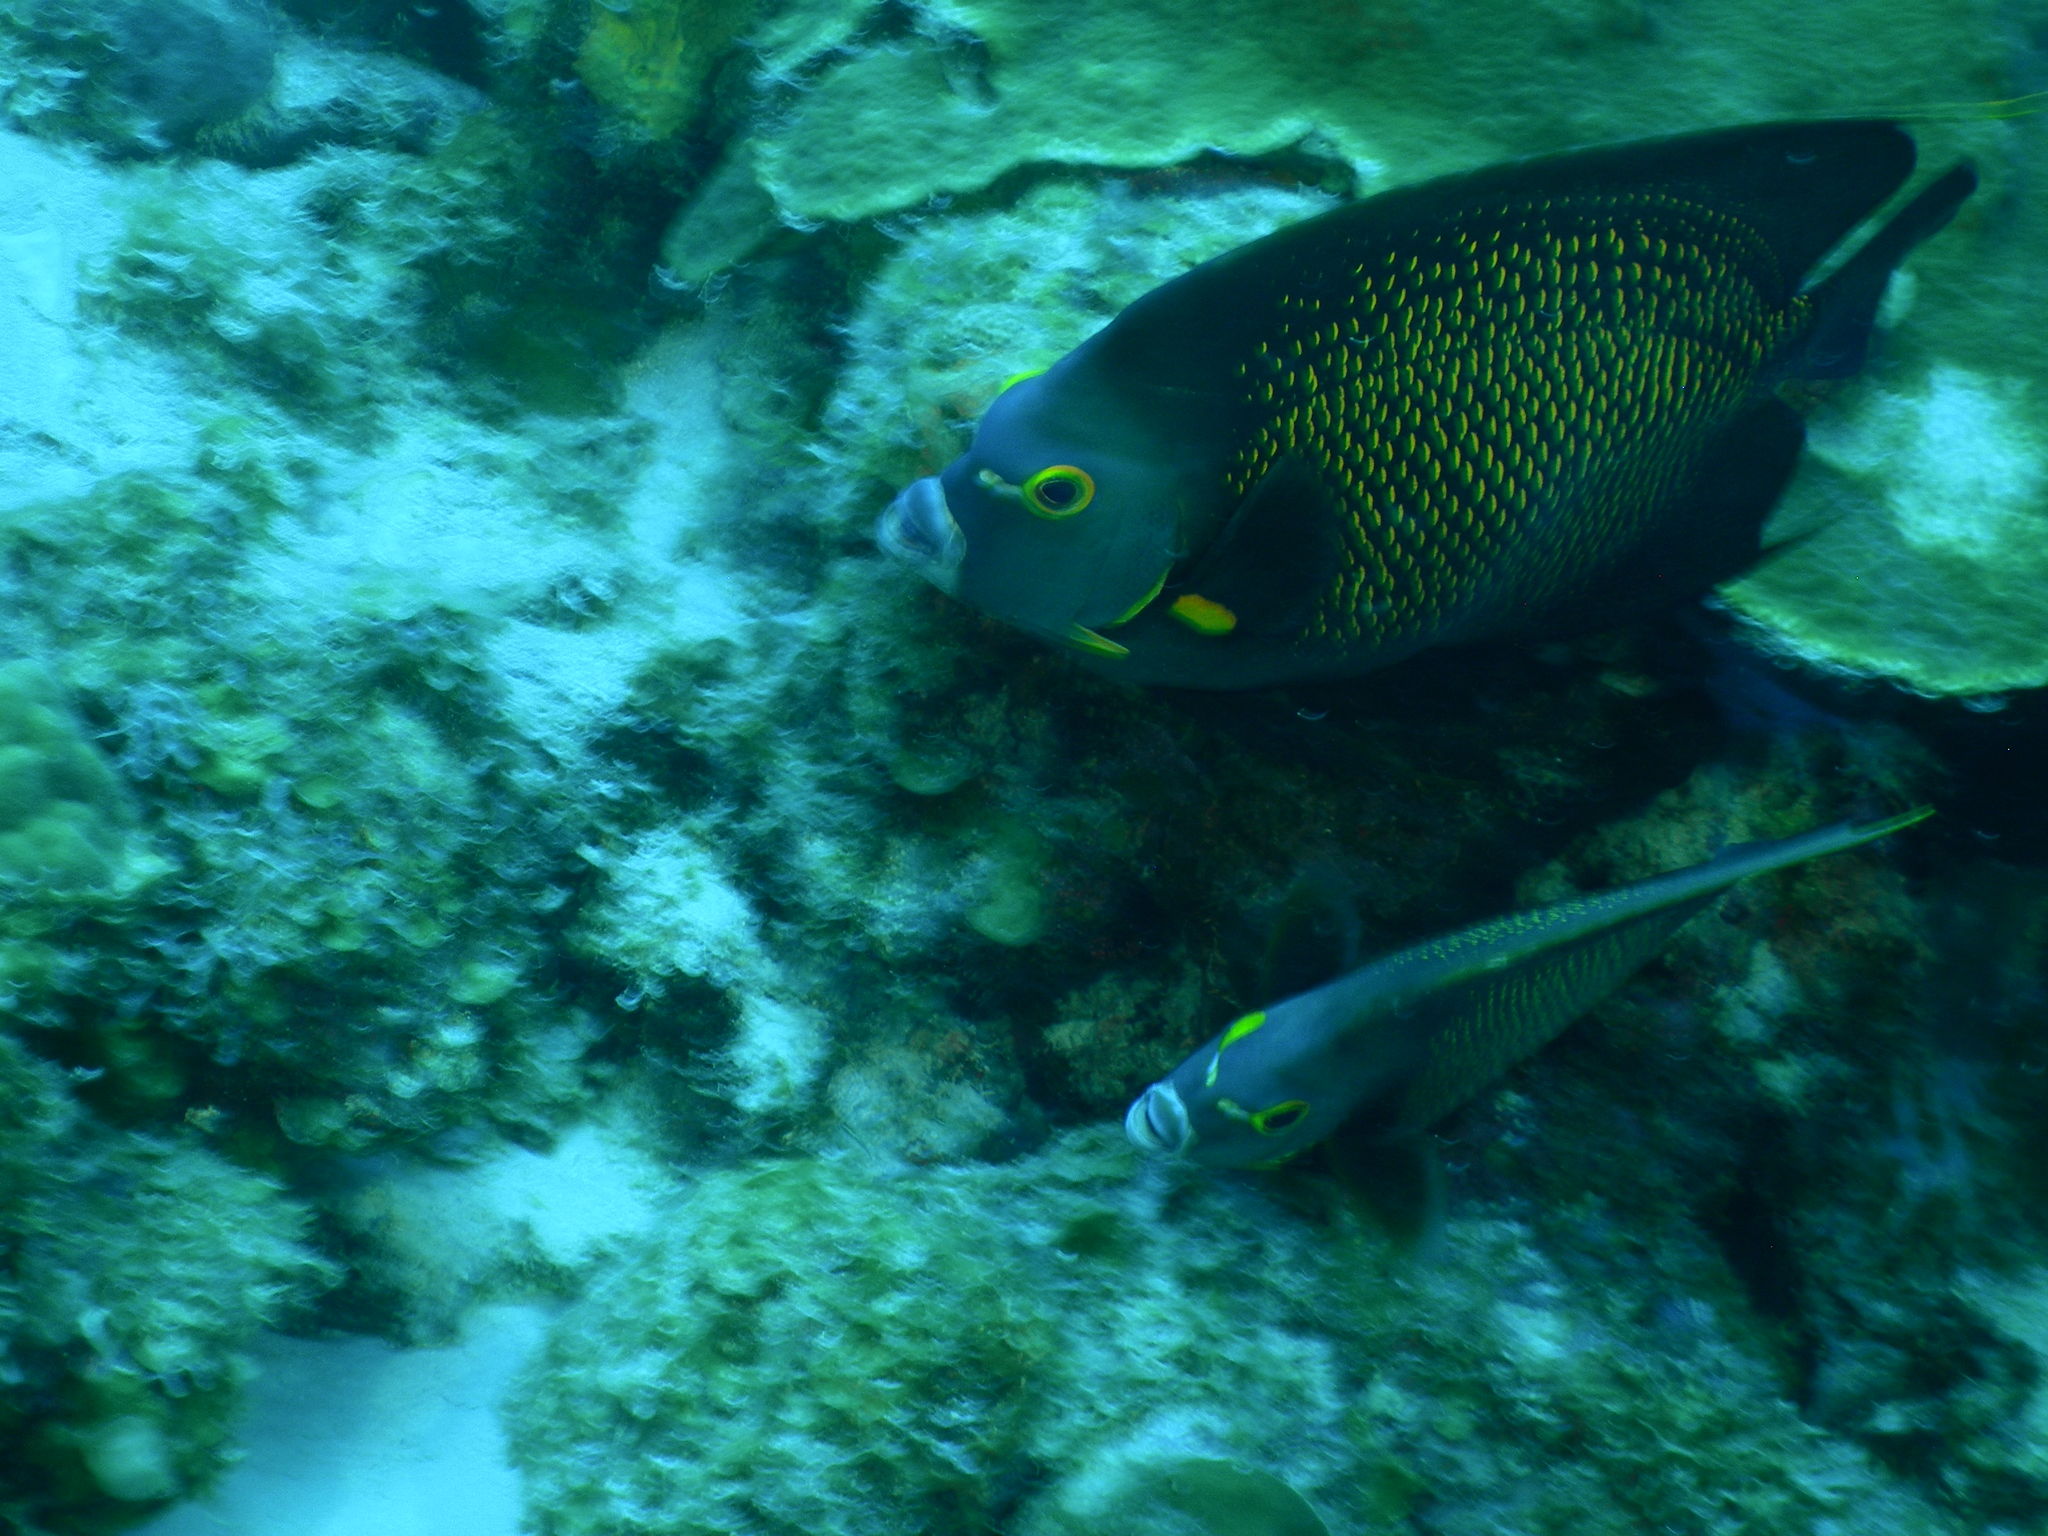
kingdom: Animalia
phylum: Chordata
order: Perciformes
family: Pomacanthidae
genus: Pomacanthus
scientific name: Pomacanthus paru
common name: French angelfish
